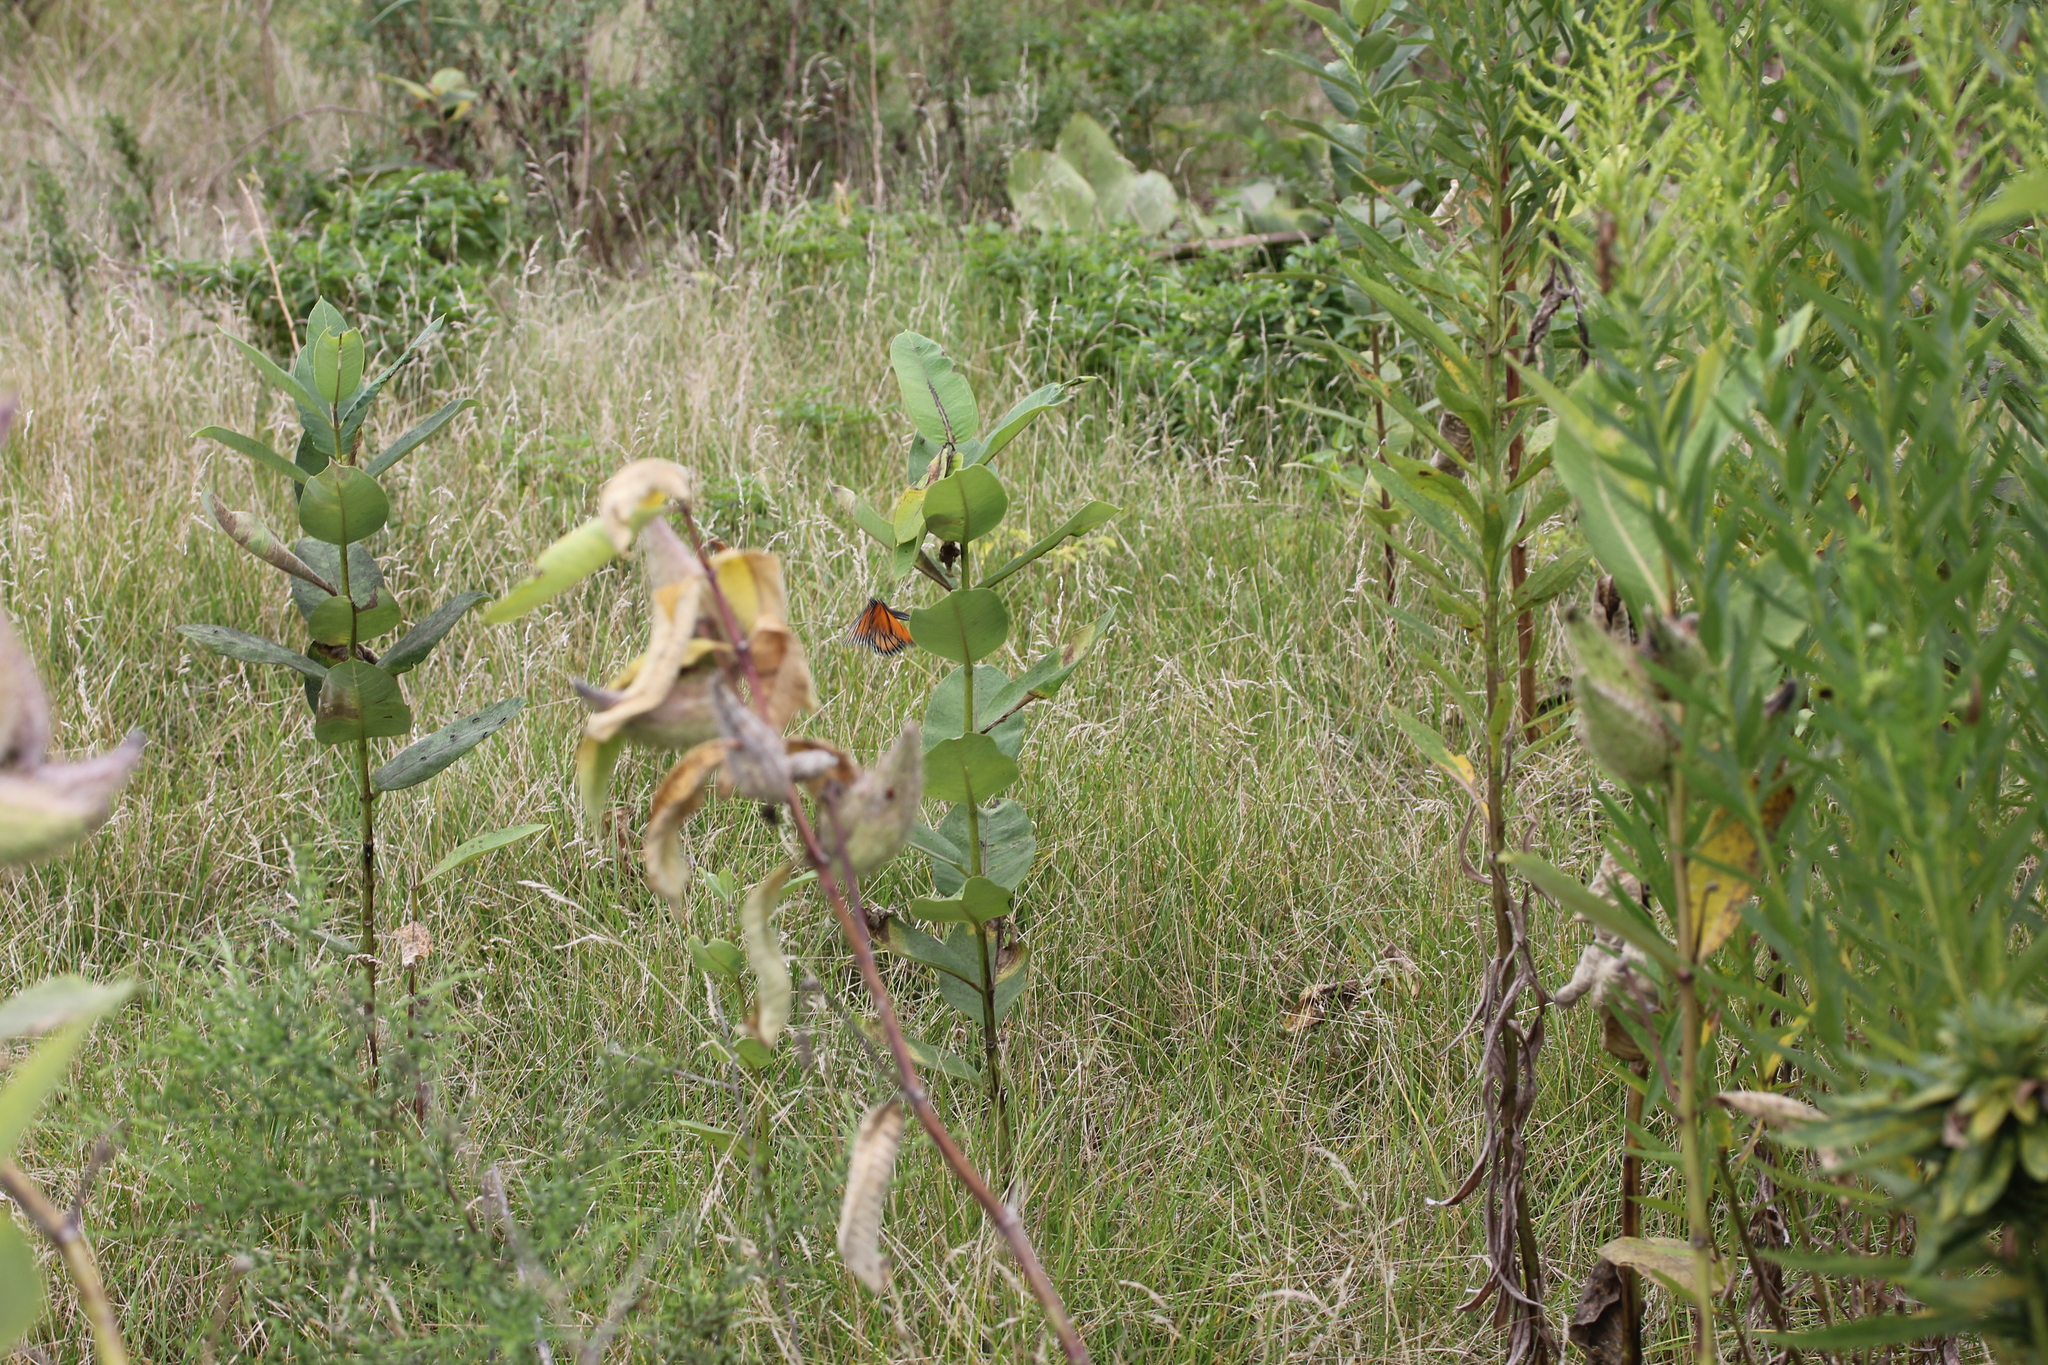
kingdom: Plantae
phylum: Tracheophyta
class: Magnoliopsida
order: Gentianales
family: Apocynaceae
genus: Asclepias
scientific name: Asclepias syriaca
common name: Common milkweed
